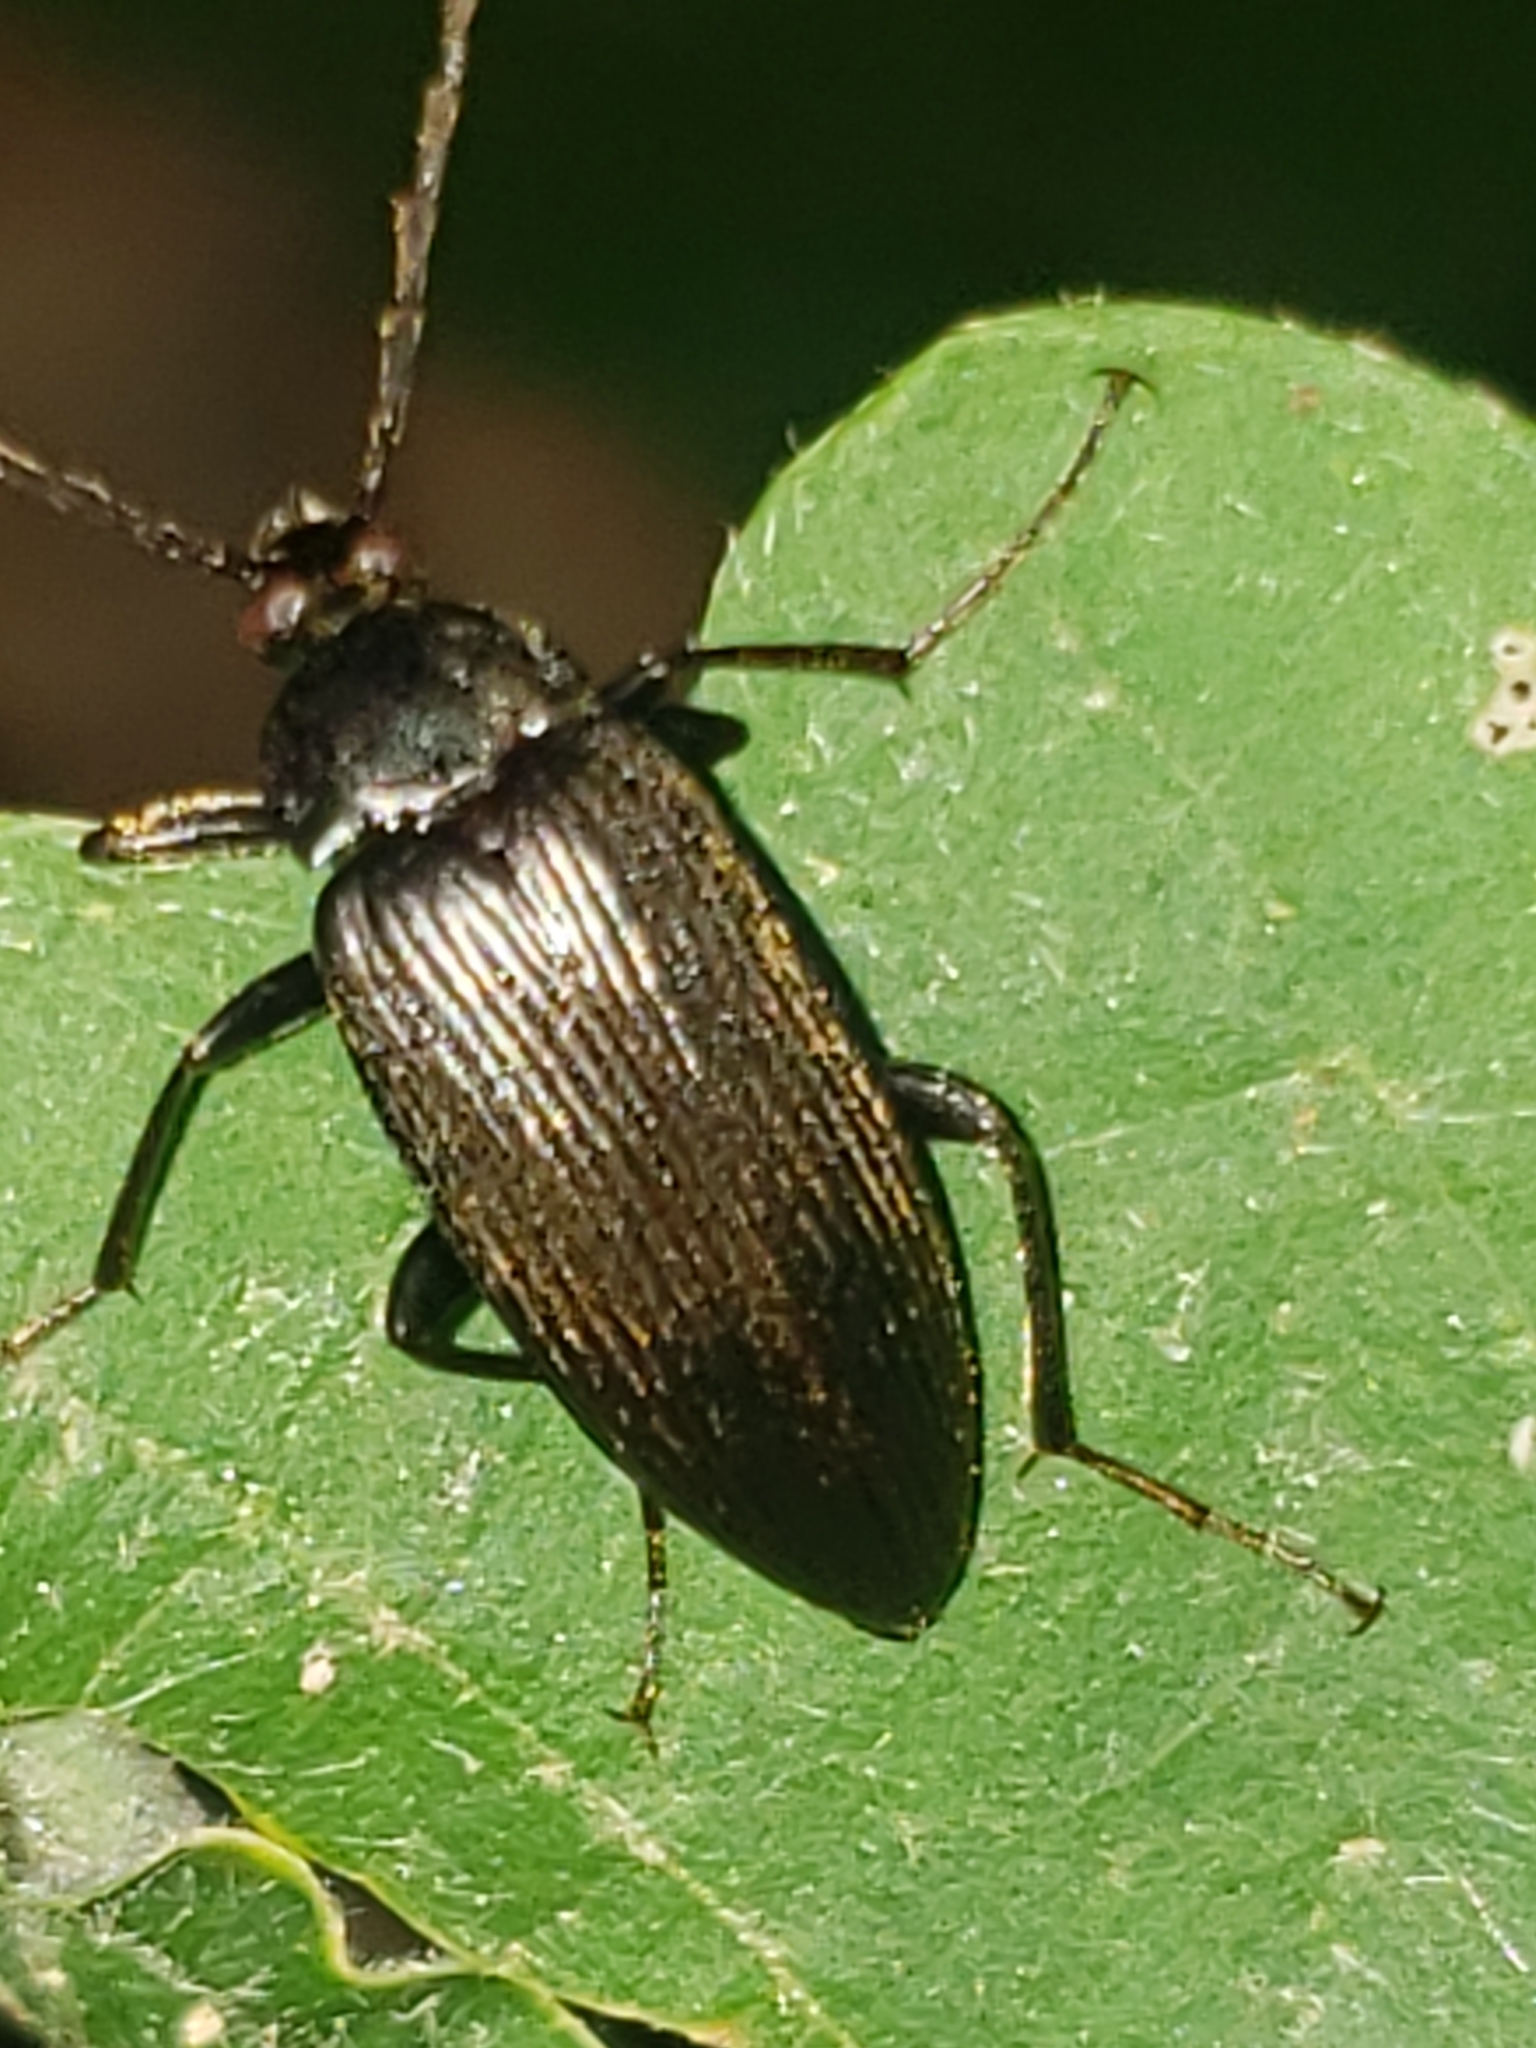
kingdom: Animalia
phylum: Arthropoda
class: Insecta
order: Coleoptera
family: Tenebrionidae
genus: Capnochroa
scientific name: Capnochroa fuliginosa
